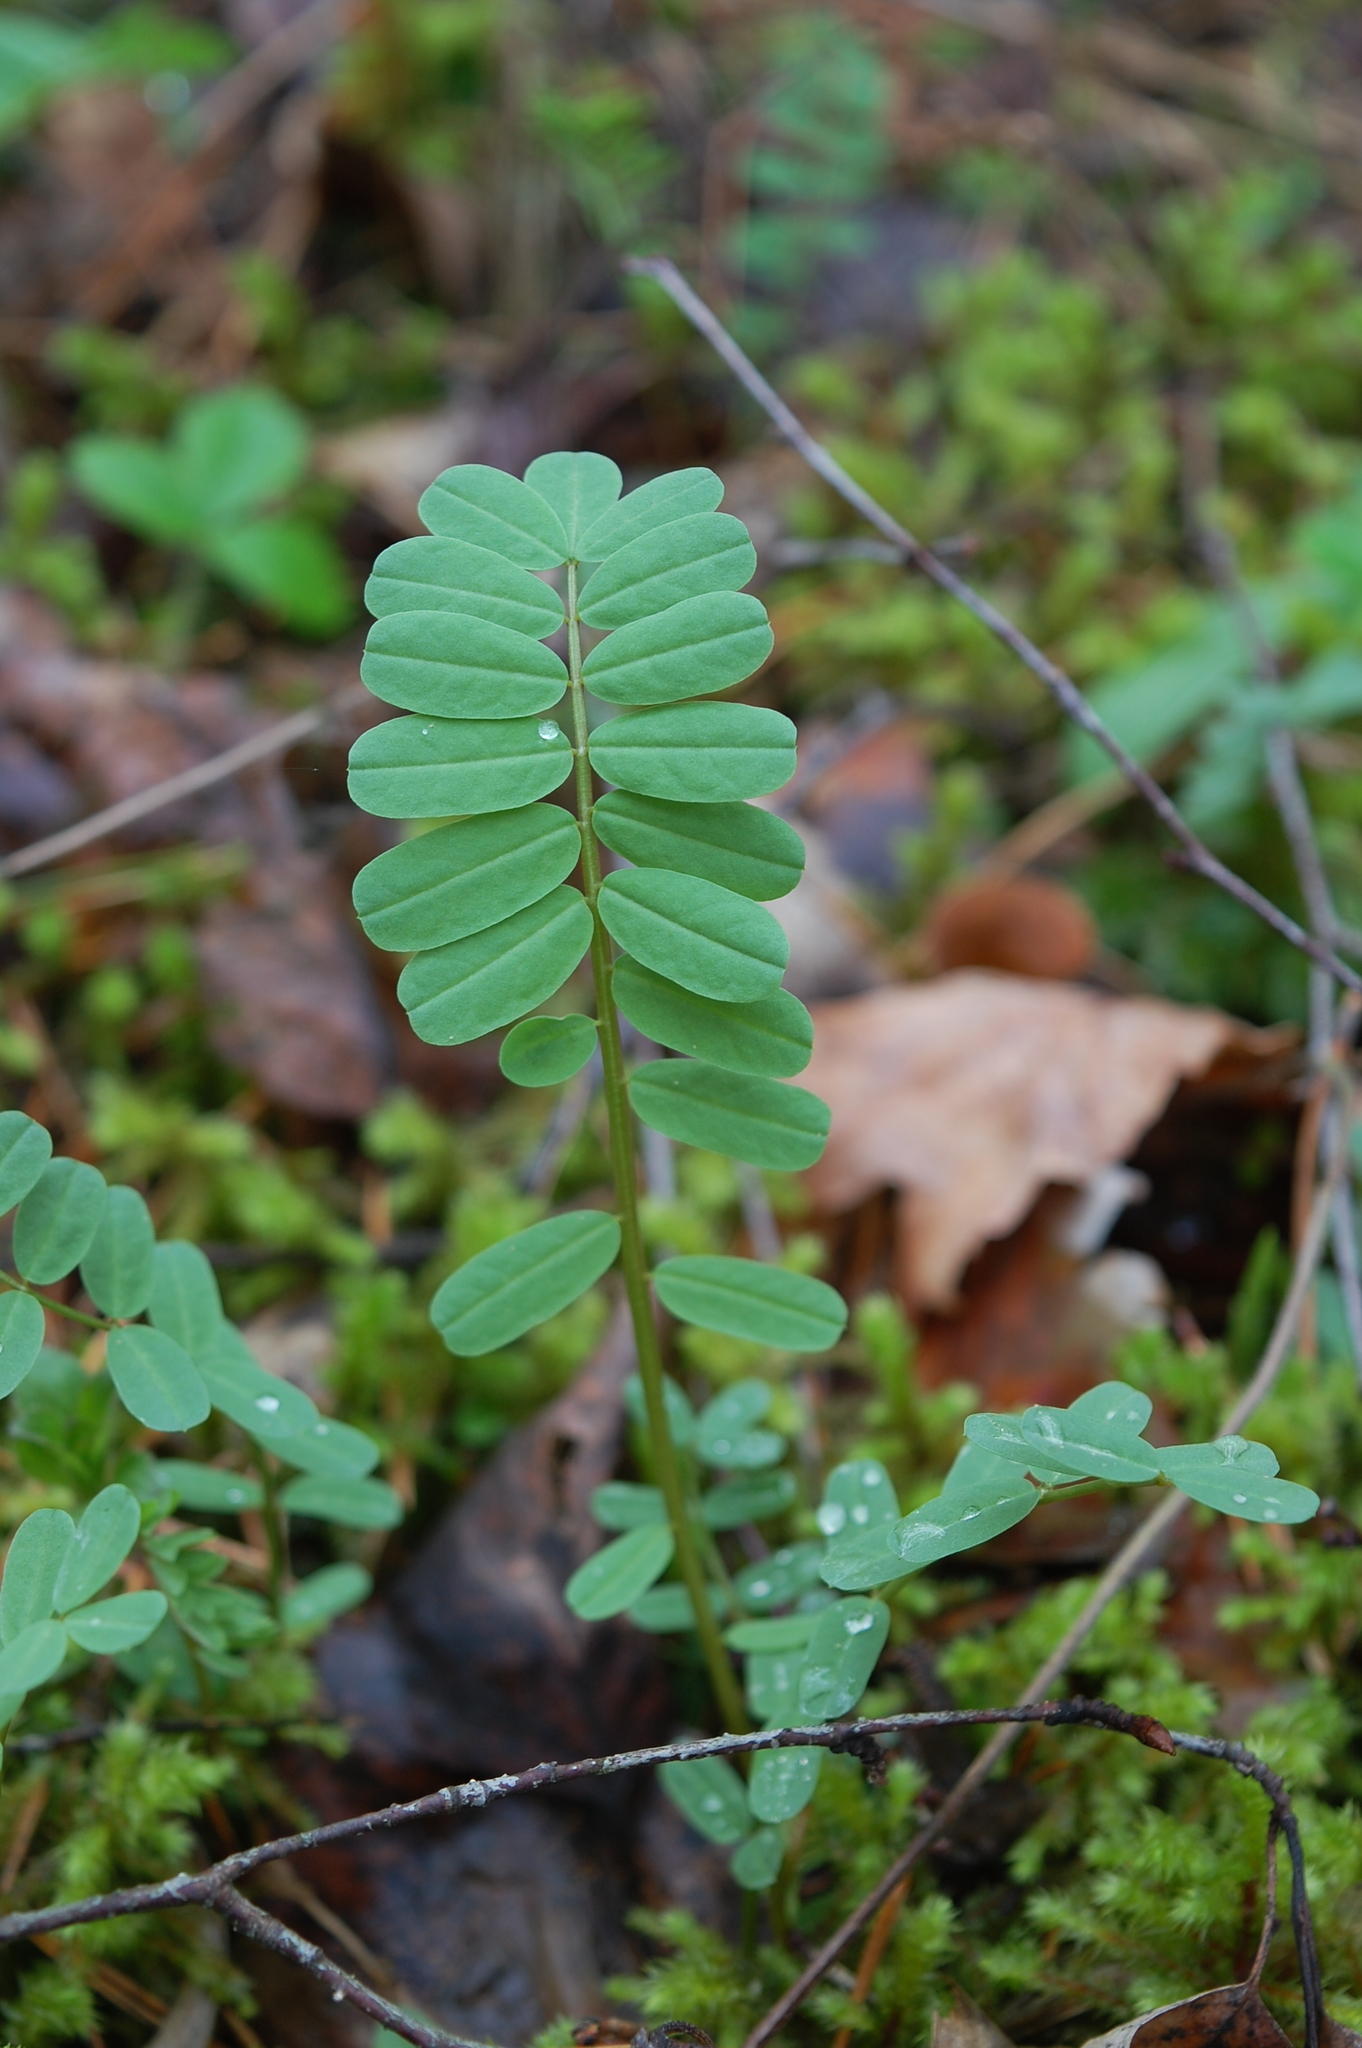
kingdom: Plantae
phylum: Tracheophyta
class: Magnoliopsida
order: Fabales
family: Fabaceae
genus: Coronilla
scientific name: Coronilla varia
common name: Crownvetch
